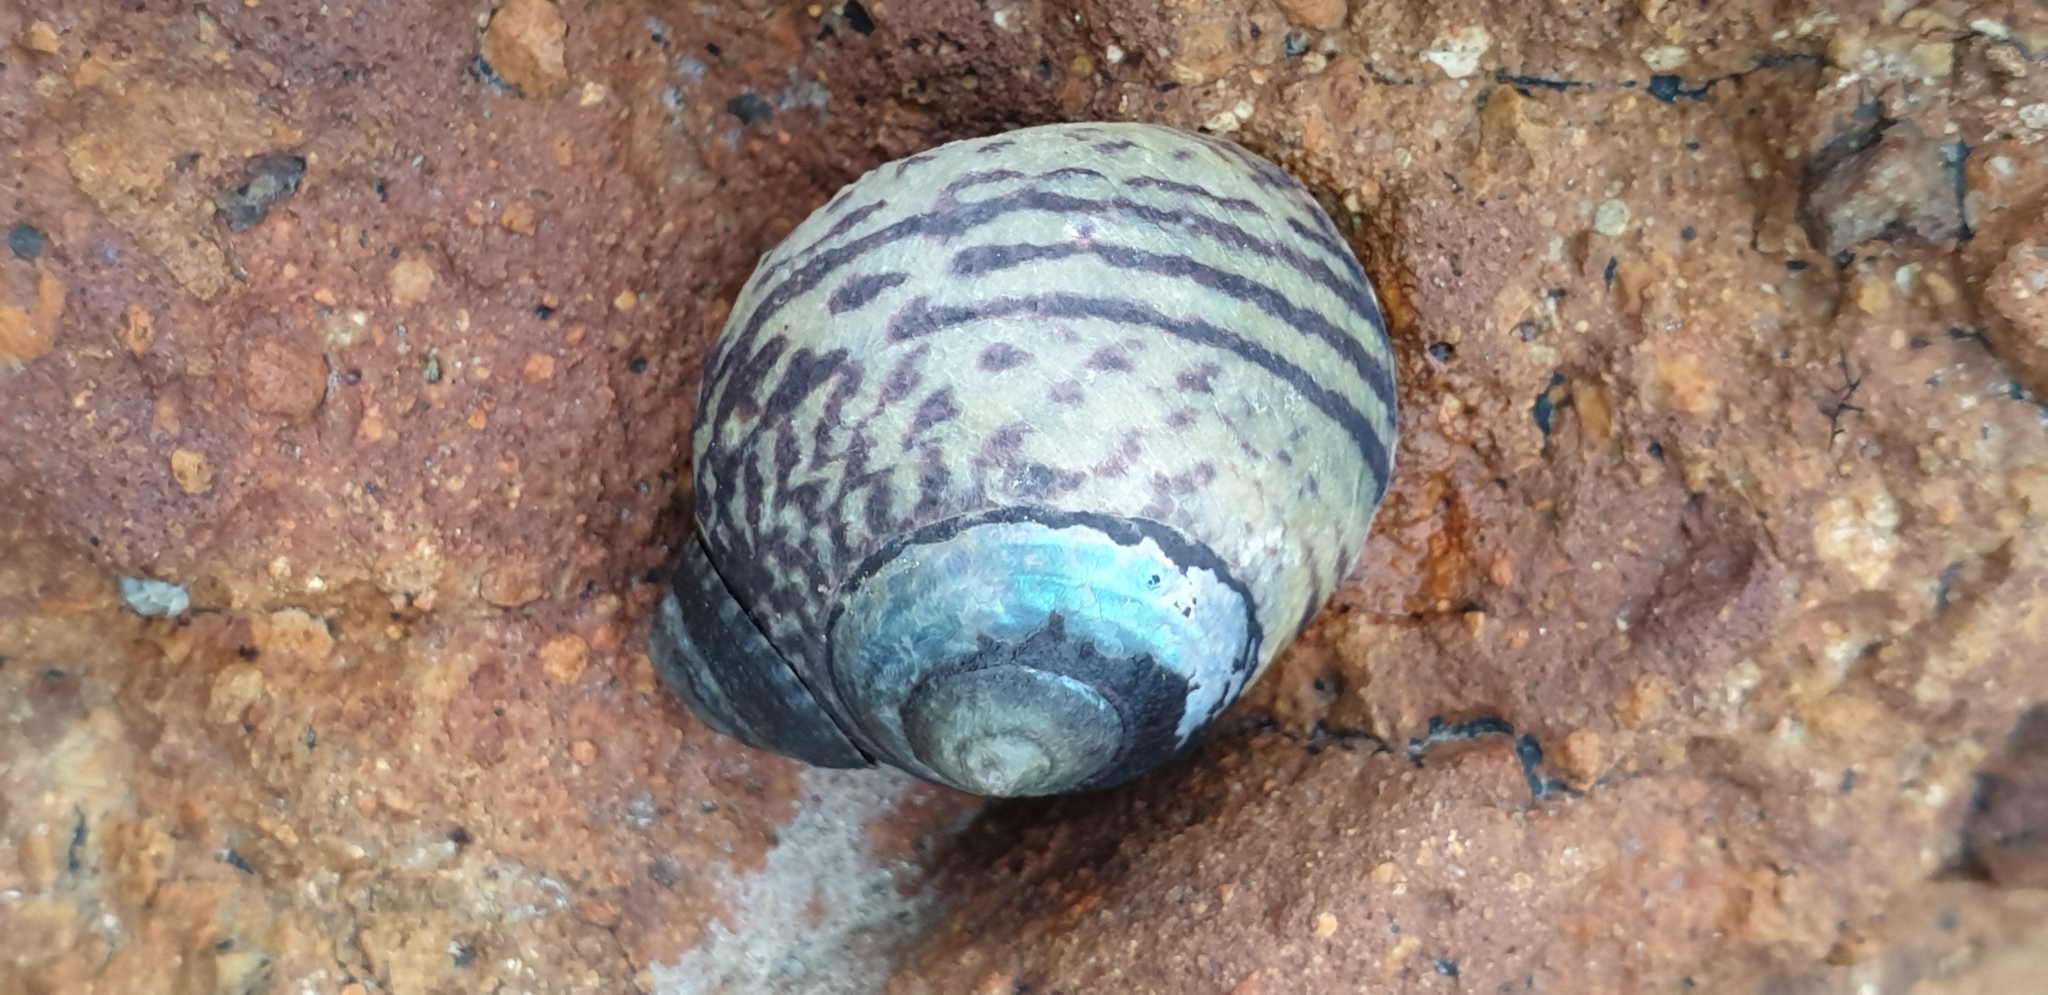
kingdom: Animalia
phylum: Mollusca
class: Gastropoda
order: Trochida
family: Trochidae
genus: Diloma
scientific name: Diloma subrostratum
